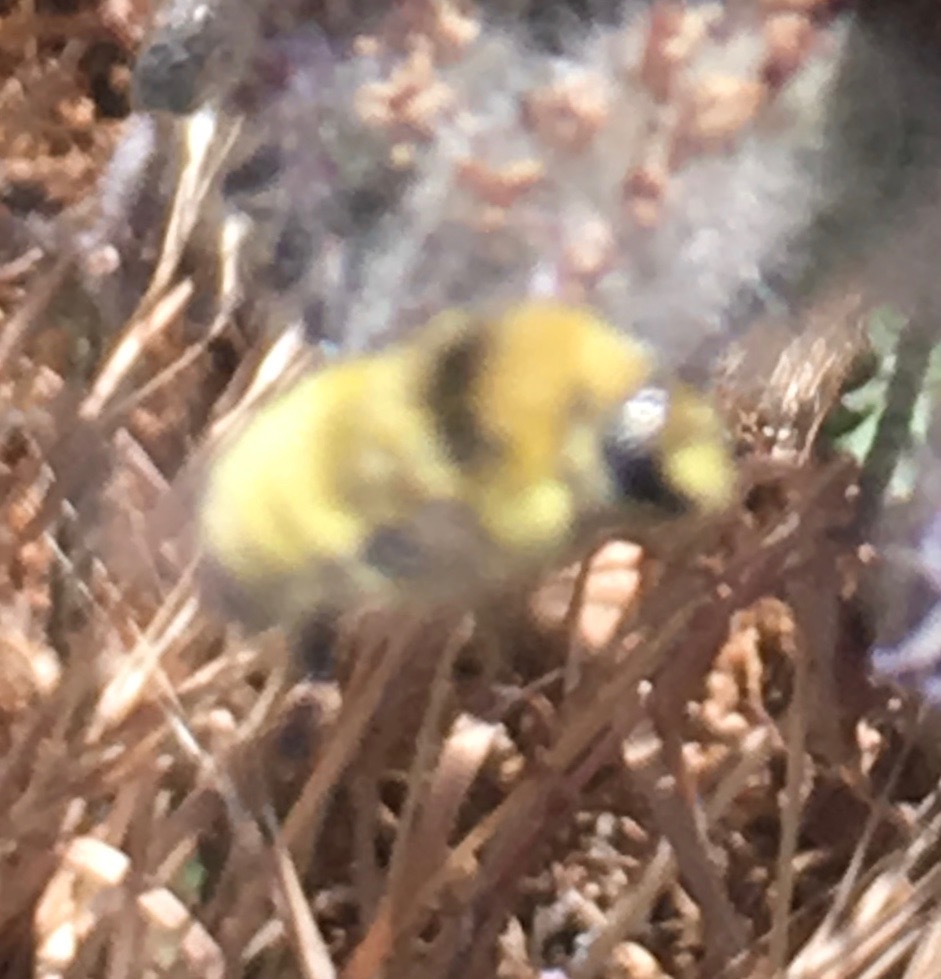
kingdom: Animalia
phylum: Arthropoda
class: Insecta
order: Hymenoptera
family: Apidae
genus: Bombus
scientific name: Bombus vandykei
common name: Van dyke bumble bee
